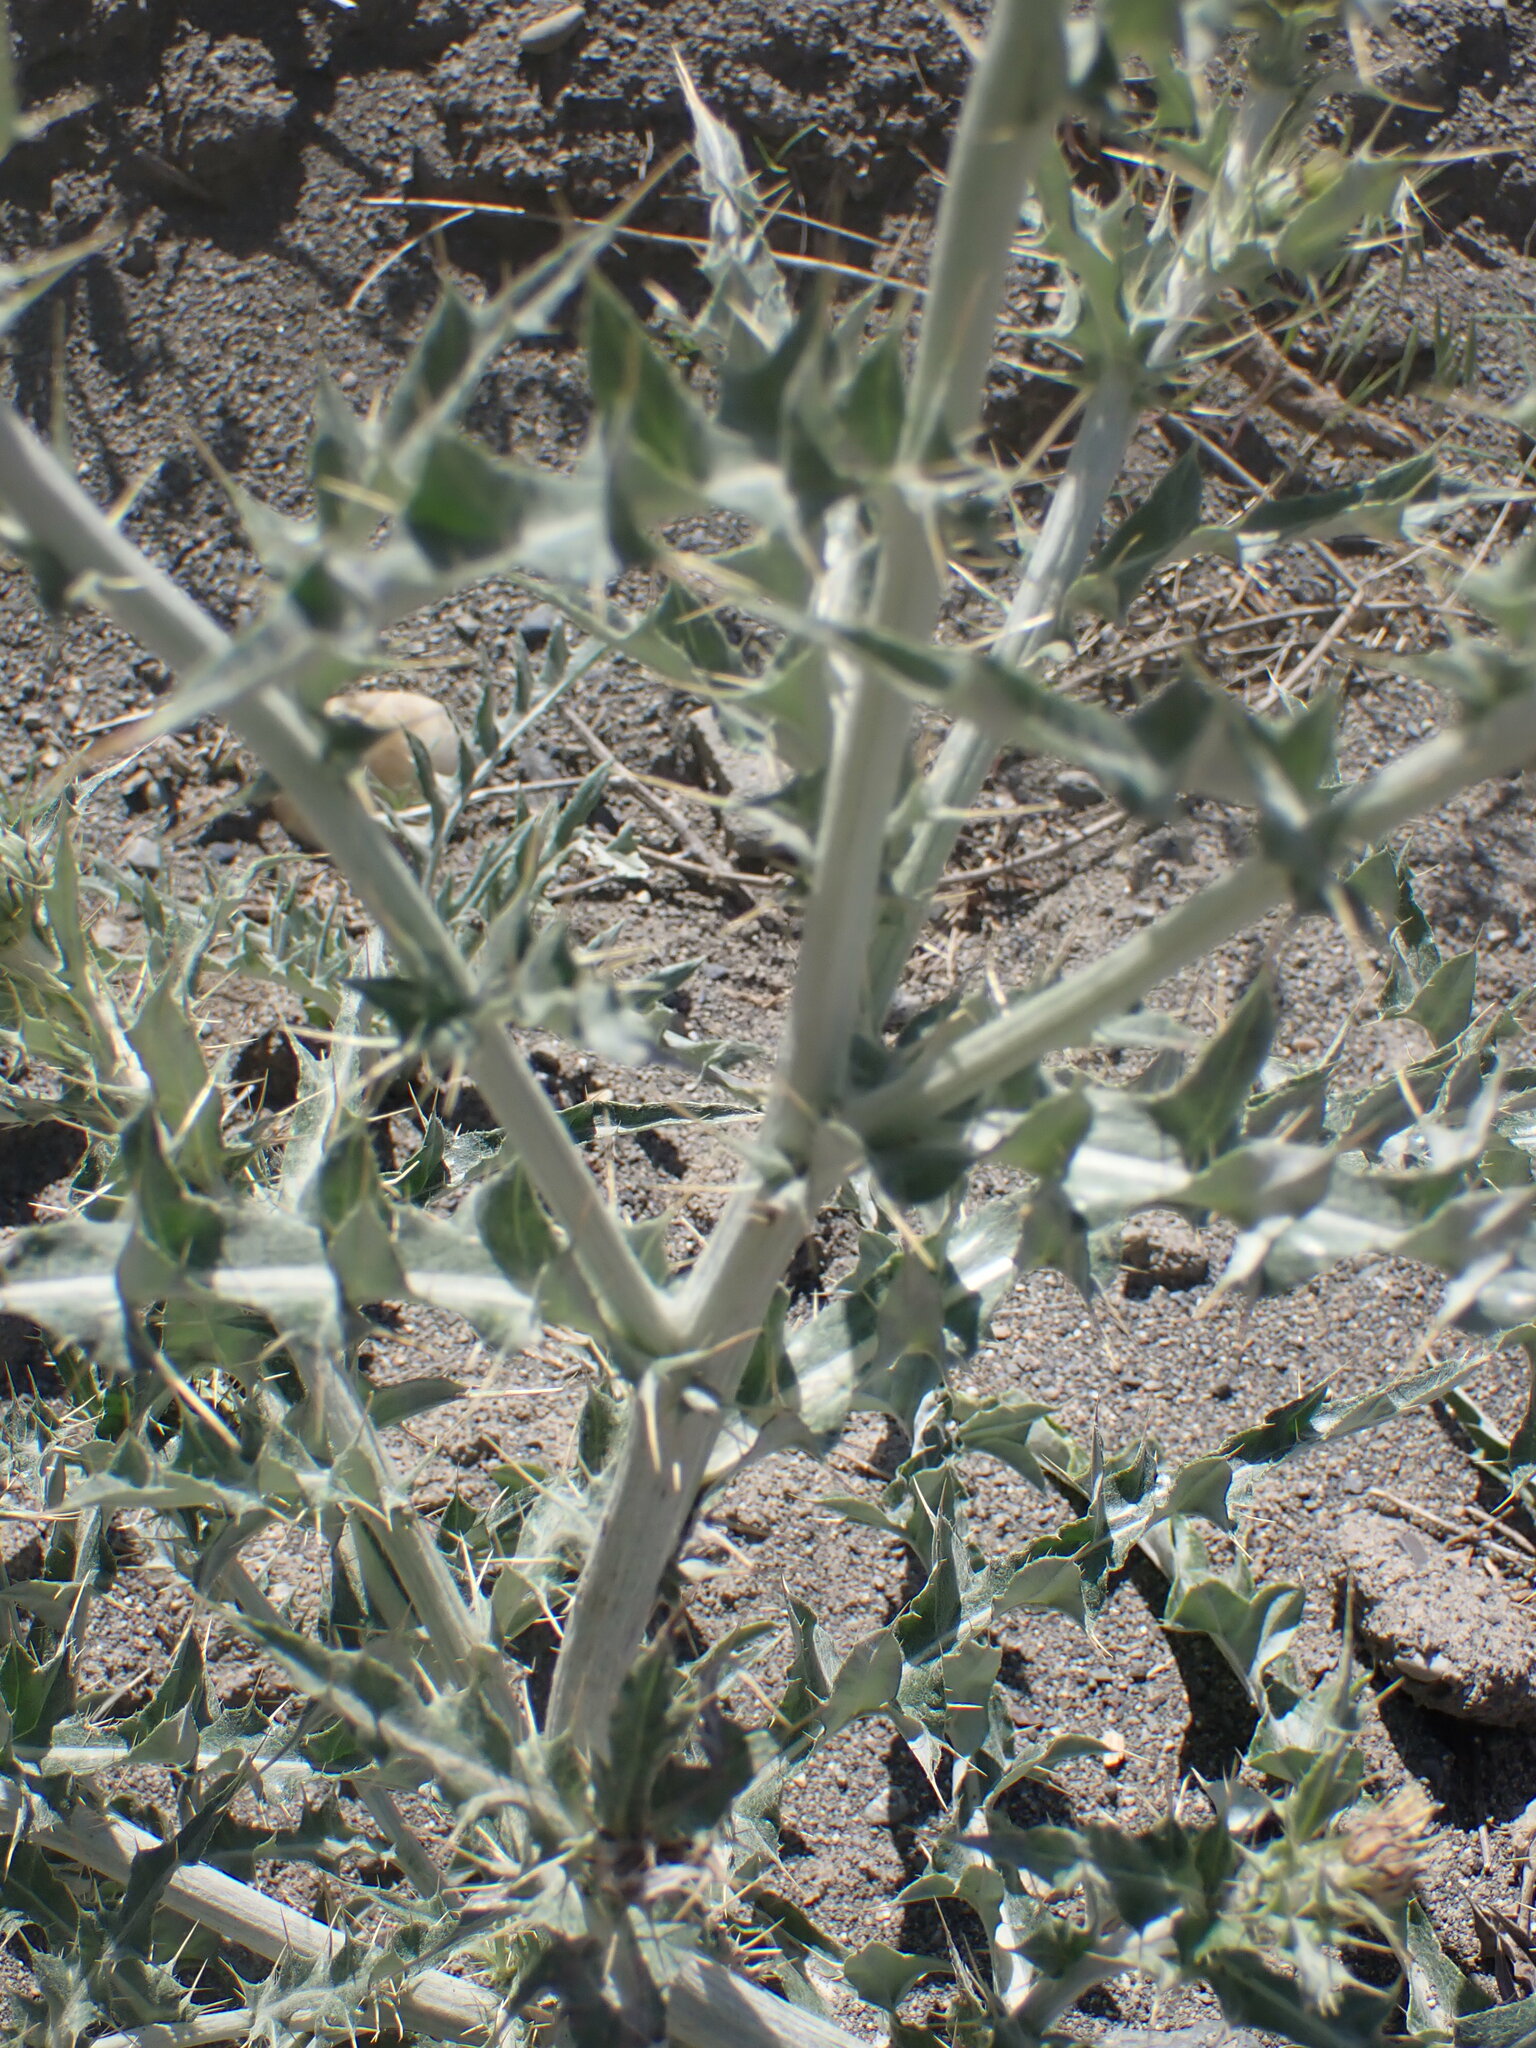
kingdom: Plantae
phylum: Tracheophyta
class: Magnoliopsida
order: Asterales
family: Asteraceae
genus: Cirsium
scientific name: Cirsium undulatum
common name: Pasture thistle
